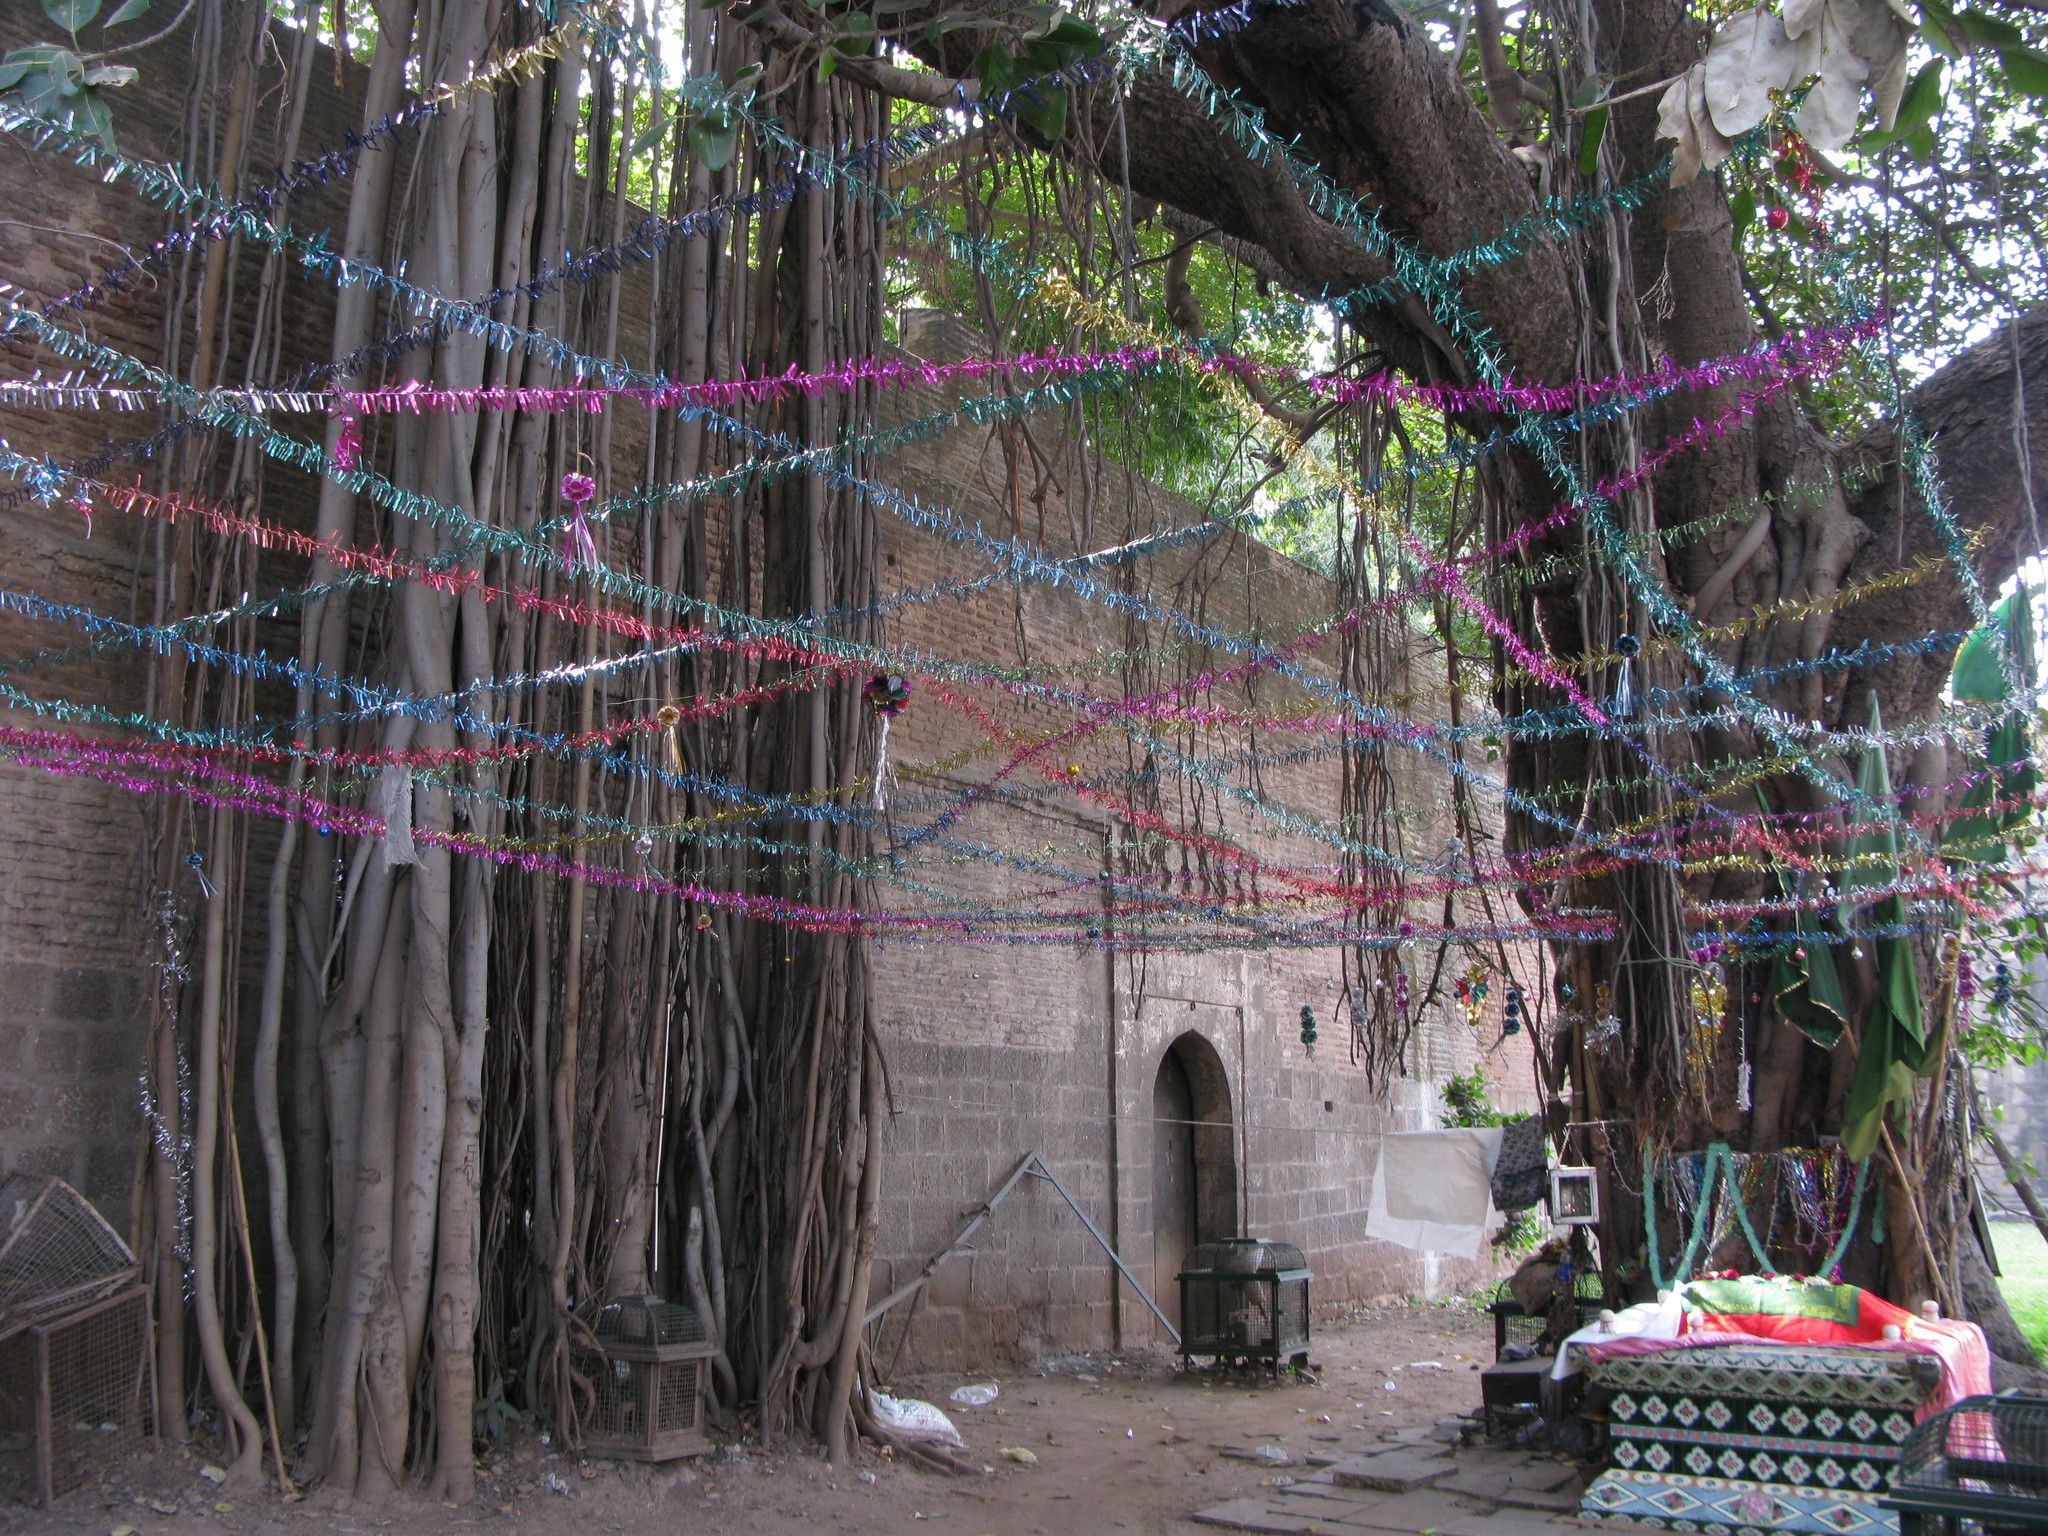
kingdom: Plantae
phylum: Tracheophyta
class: Magnoliopsida
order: Rosales
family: Moraceae
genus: Ficus
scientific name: Ficus benghalensis
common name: Indian banyan
